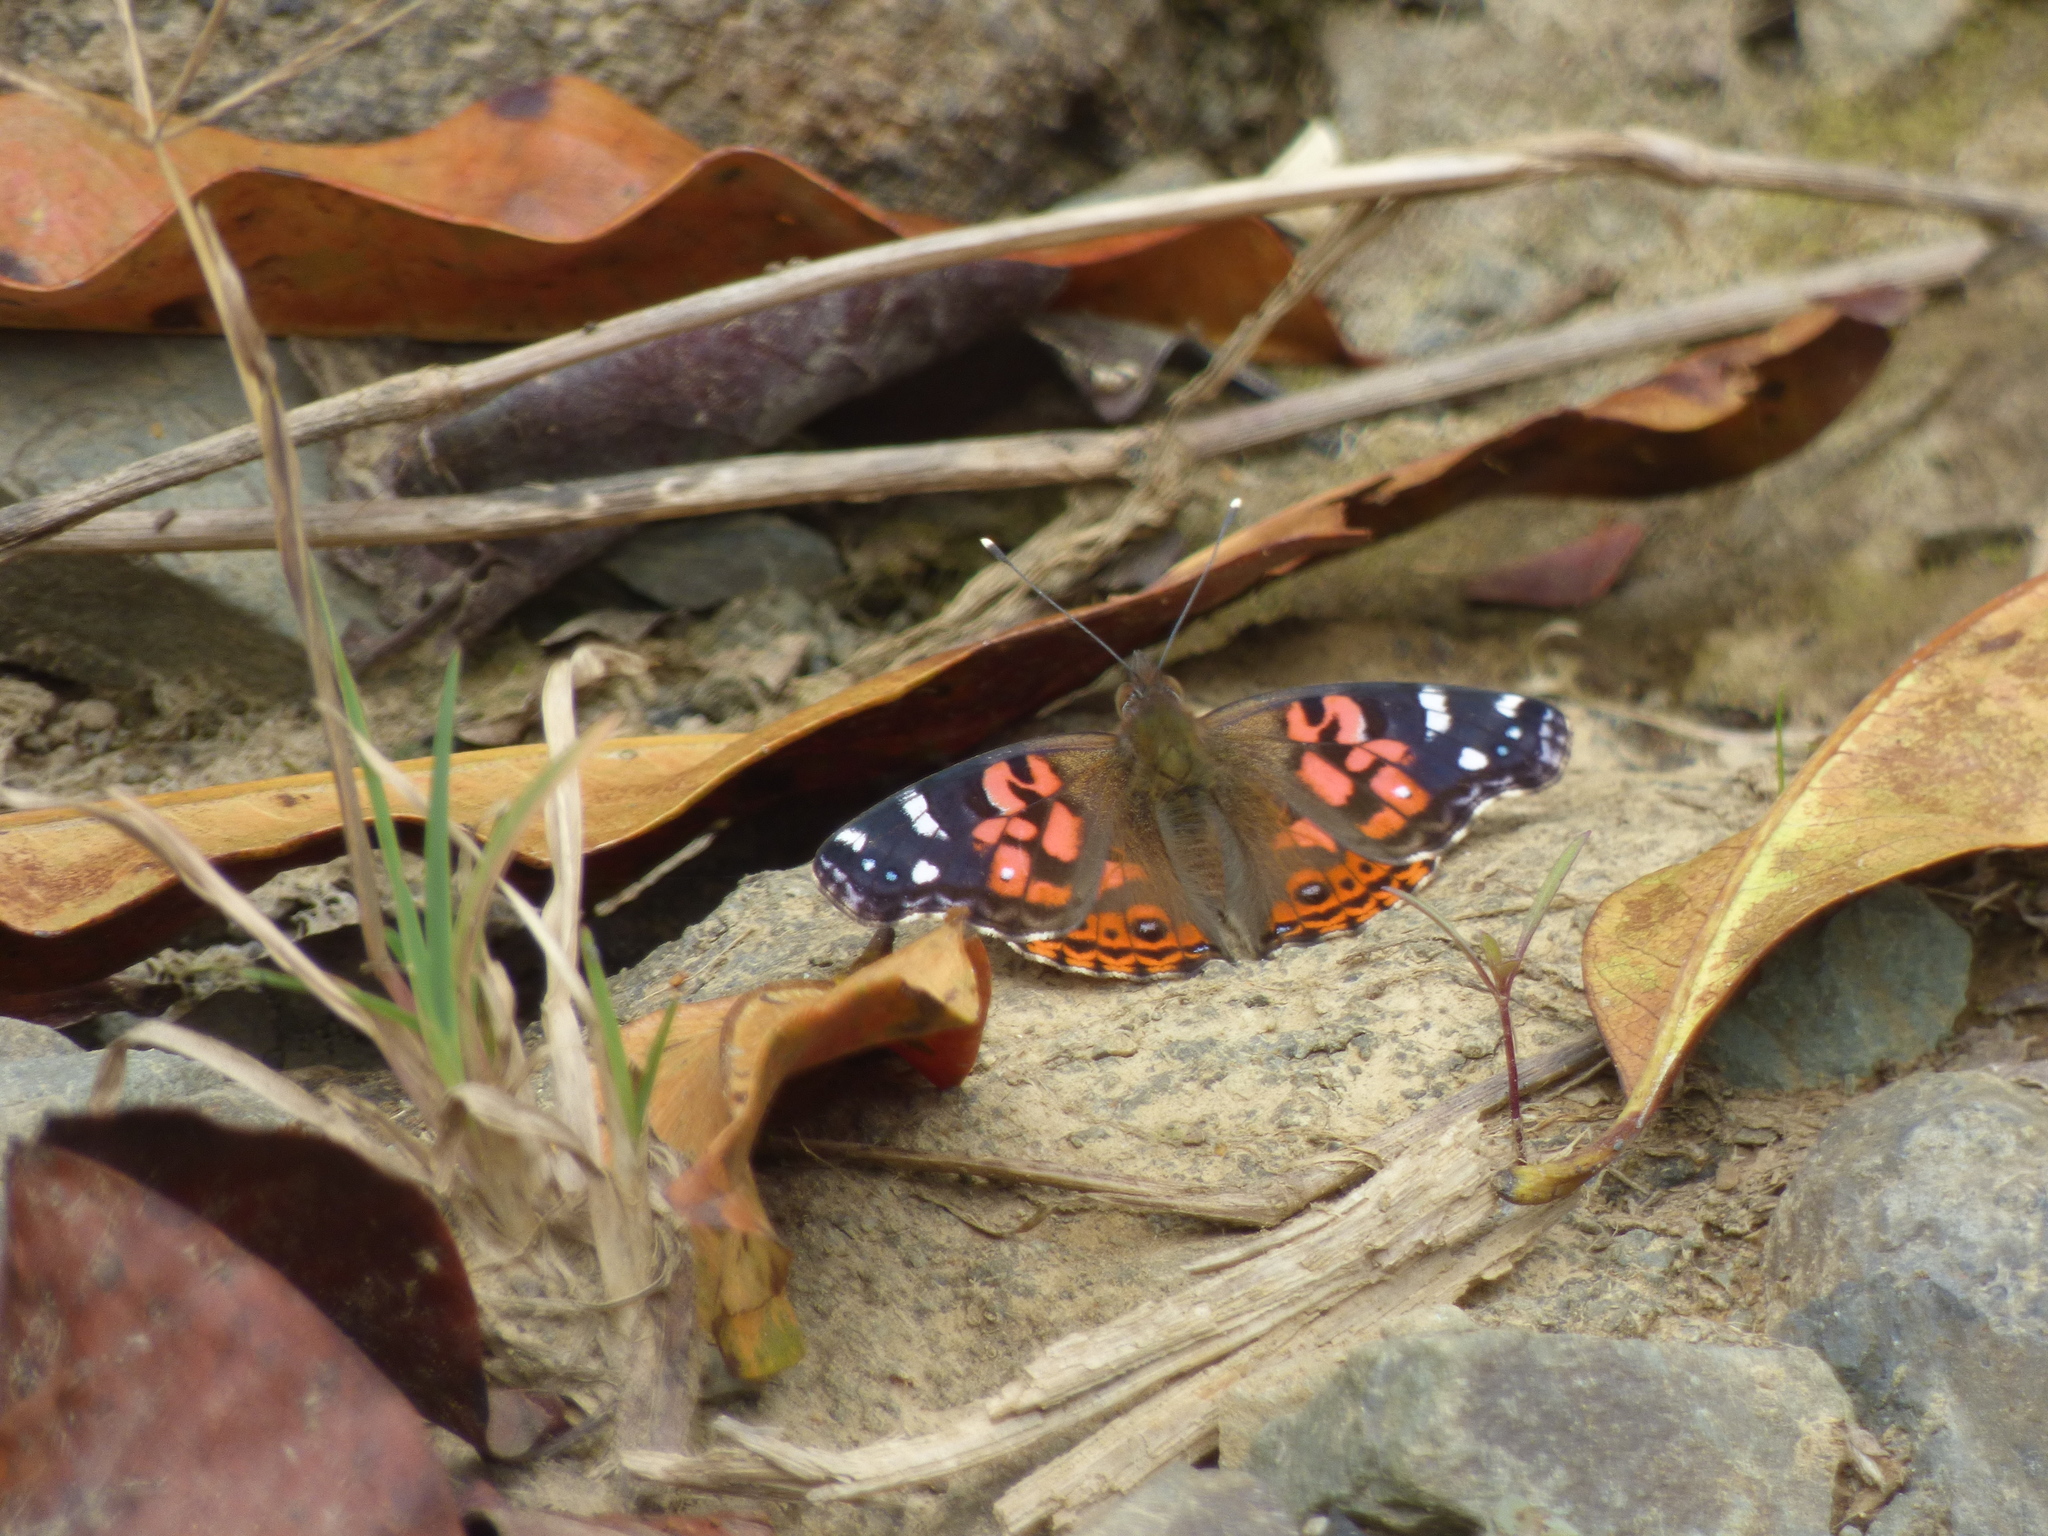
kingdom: Animalia
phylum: Arthropoda
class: Insecta
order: Lepidoptera
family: Nymphalidae
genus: Vanessa
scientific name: Vanessa braziliensis
